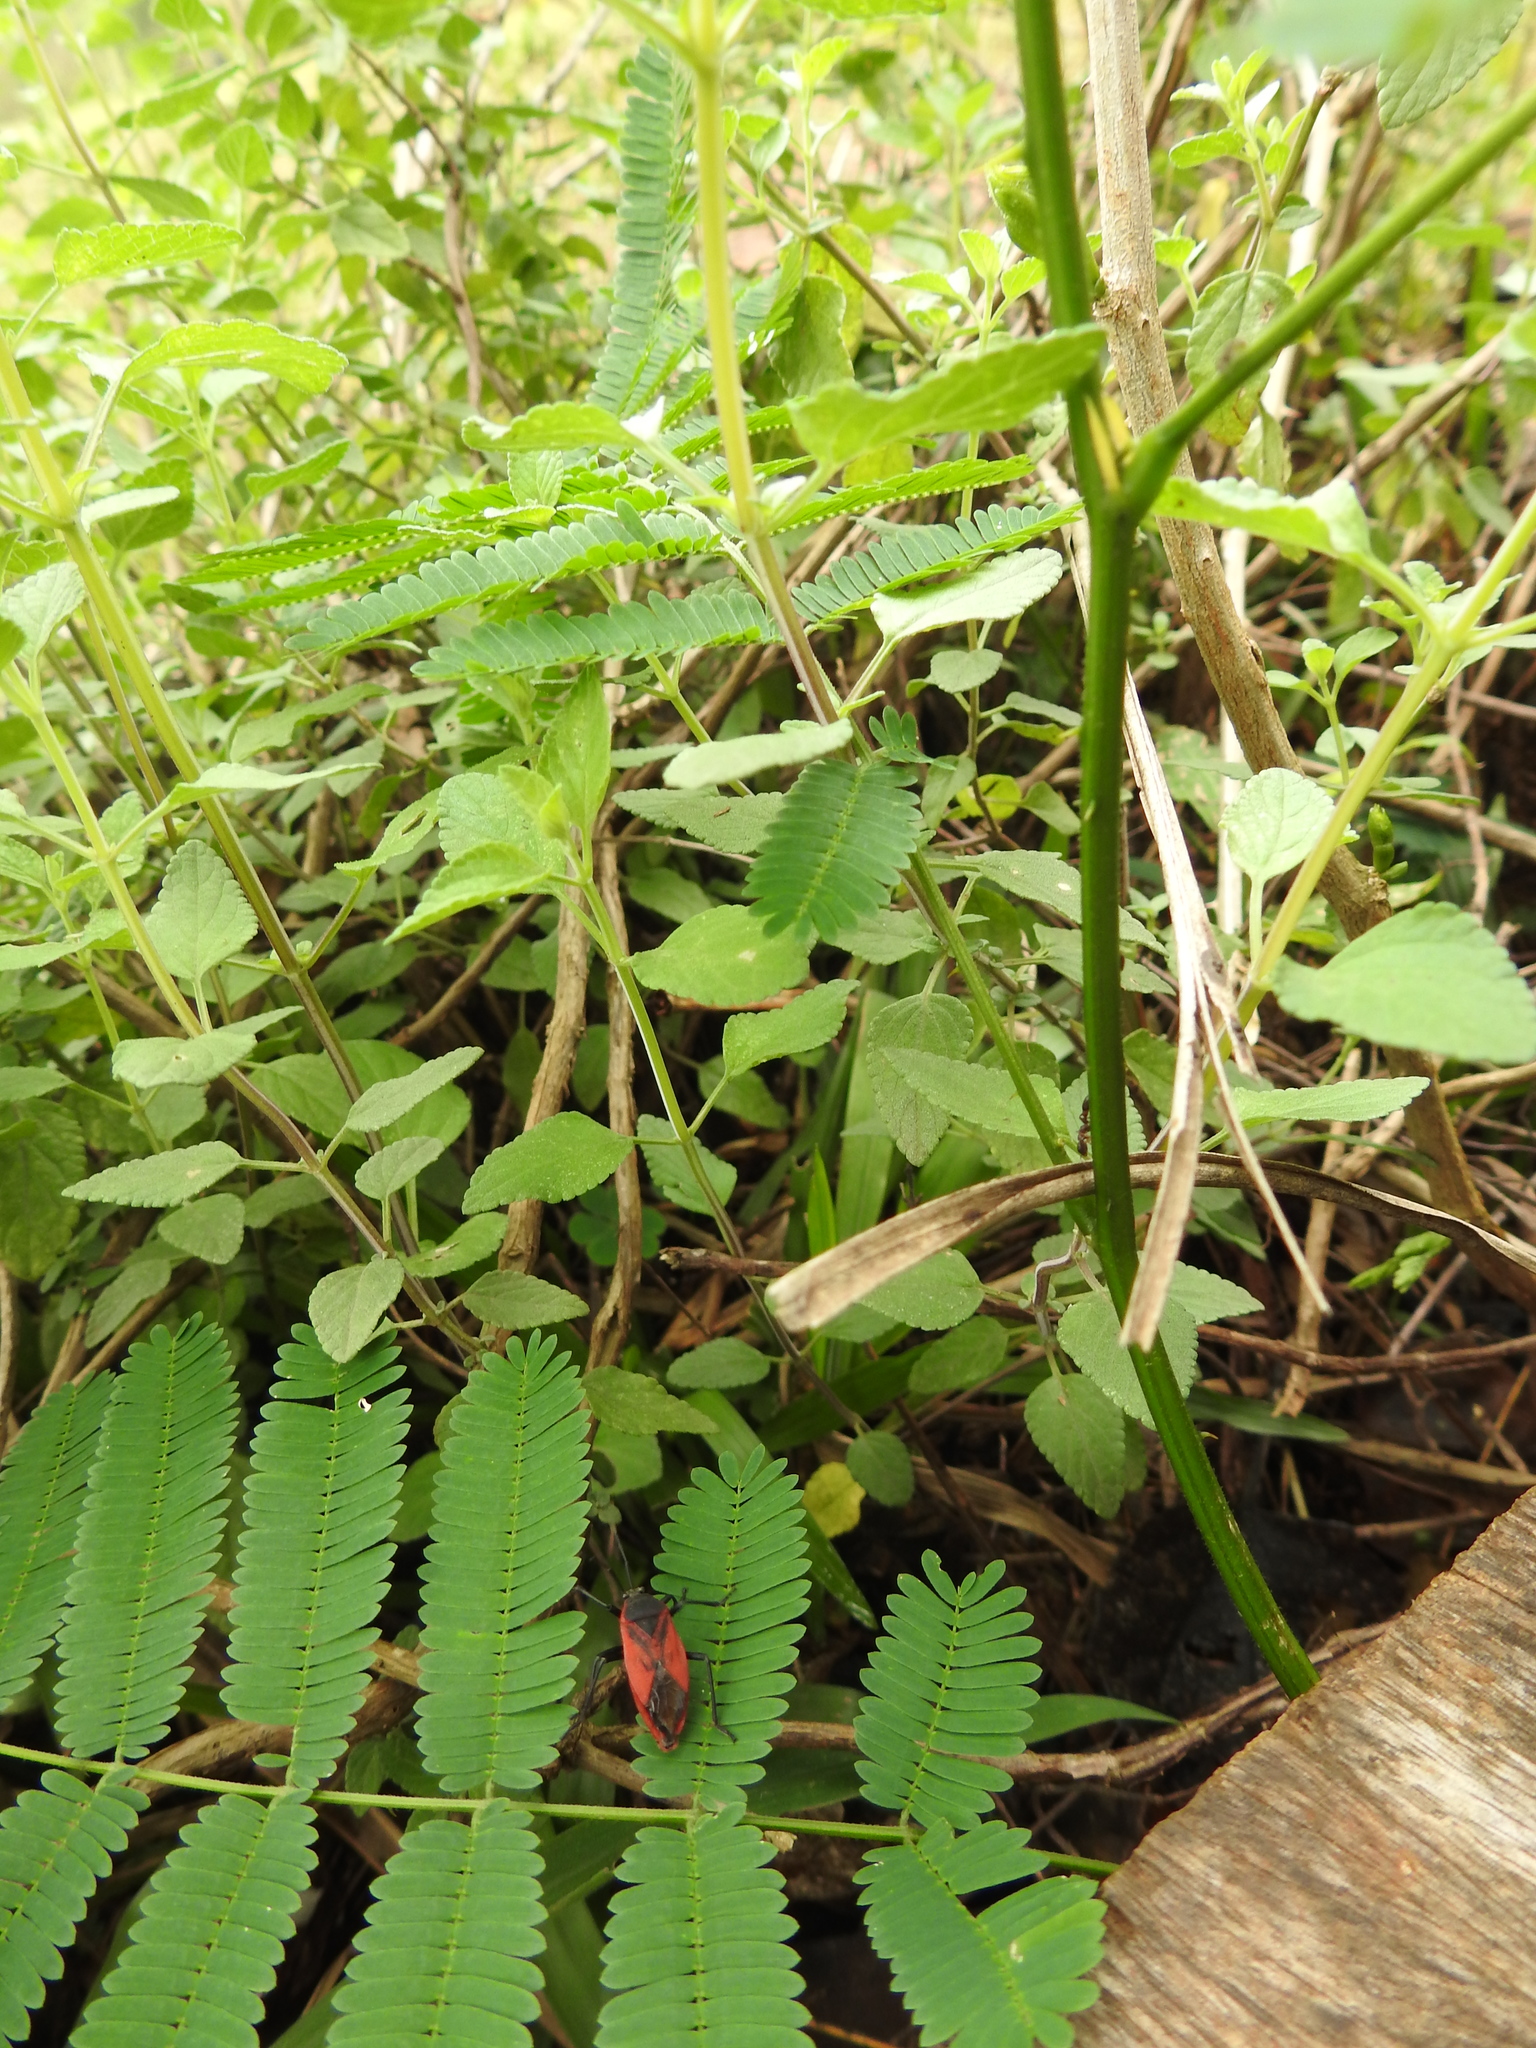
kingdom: Animalia
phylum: Arthropoda
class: Insecta
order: Hemiptera
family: Largidae
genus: Largus
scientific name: Largus rufipennis
